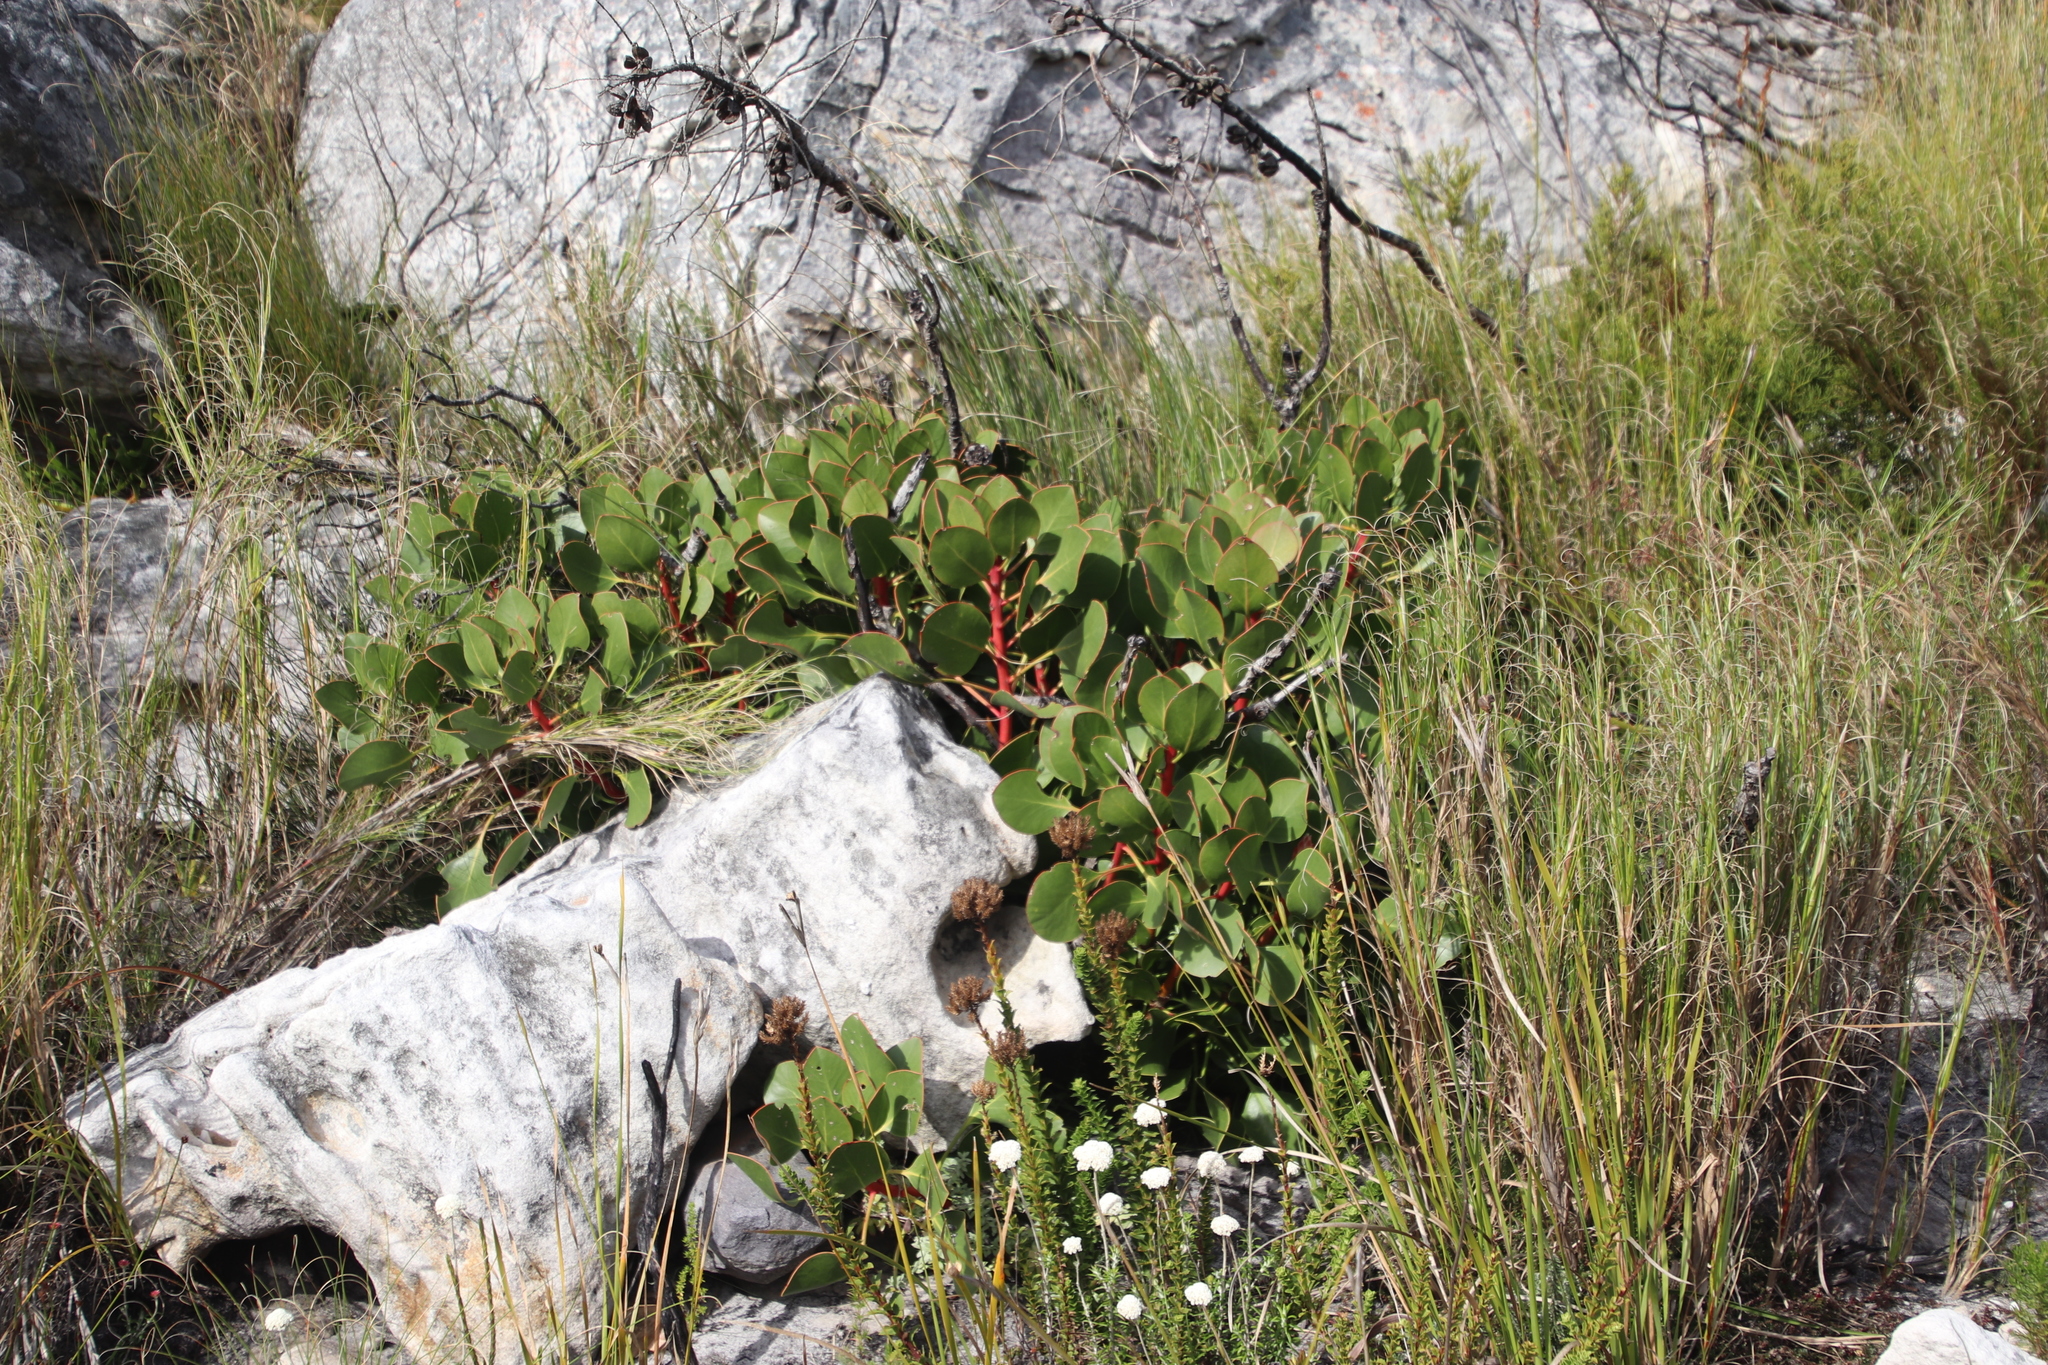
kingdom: Plantae
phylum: Tracheophyta
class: Magnoliopsida
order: Proteales
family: Proteaceae
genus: Protea
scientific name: Protea cynaroides
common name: King protea
